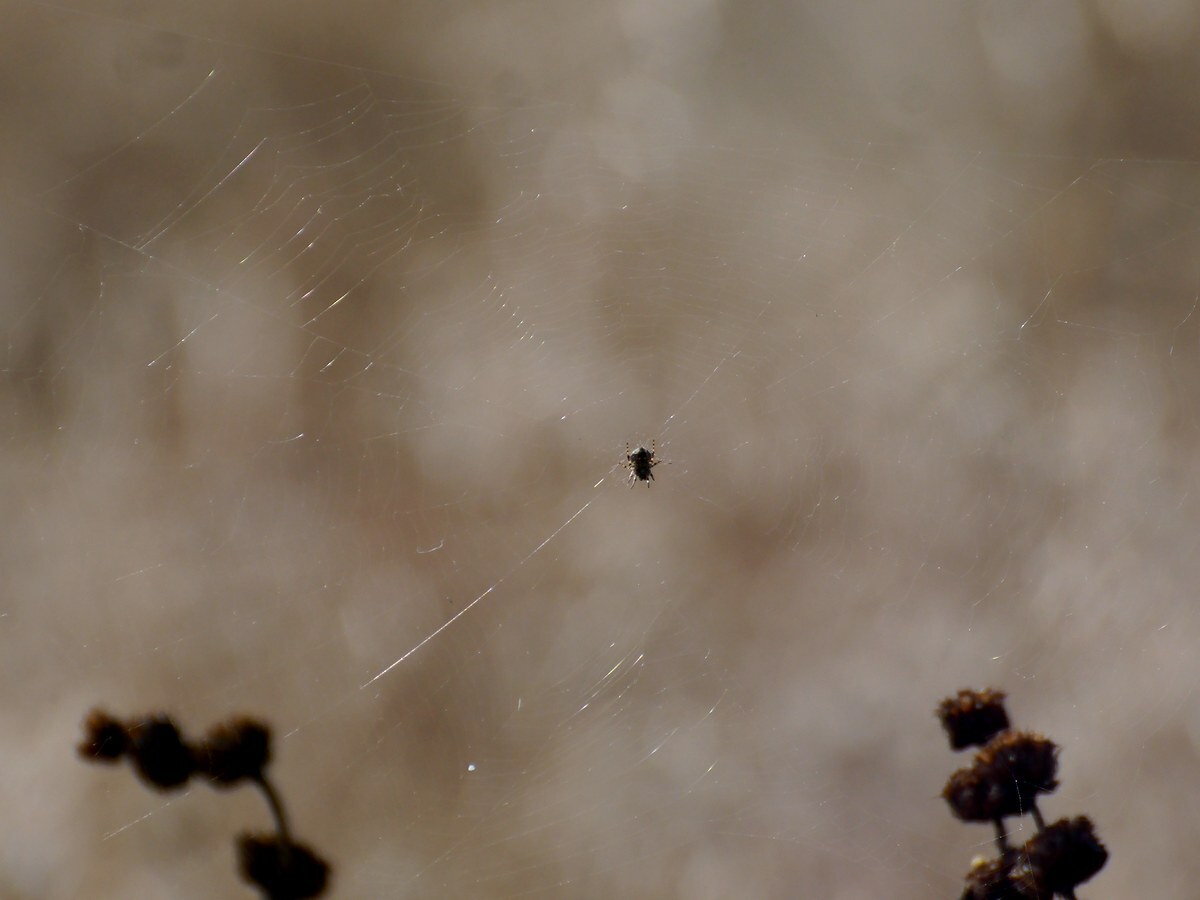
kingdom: Animalia
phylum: Arthropoda
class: Arachnida
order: Araneae
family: Araneidae
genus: Agalenatea
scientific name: Agalenatea redii
